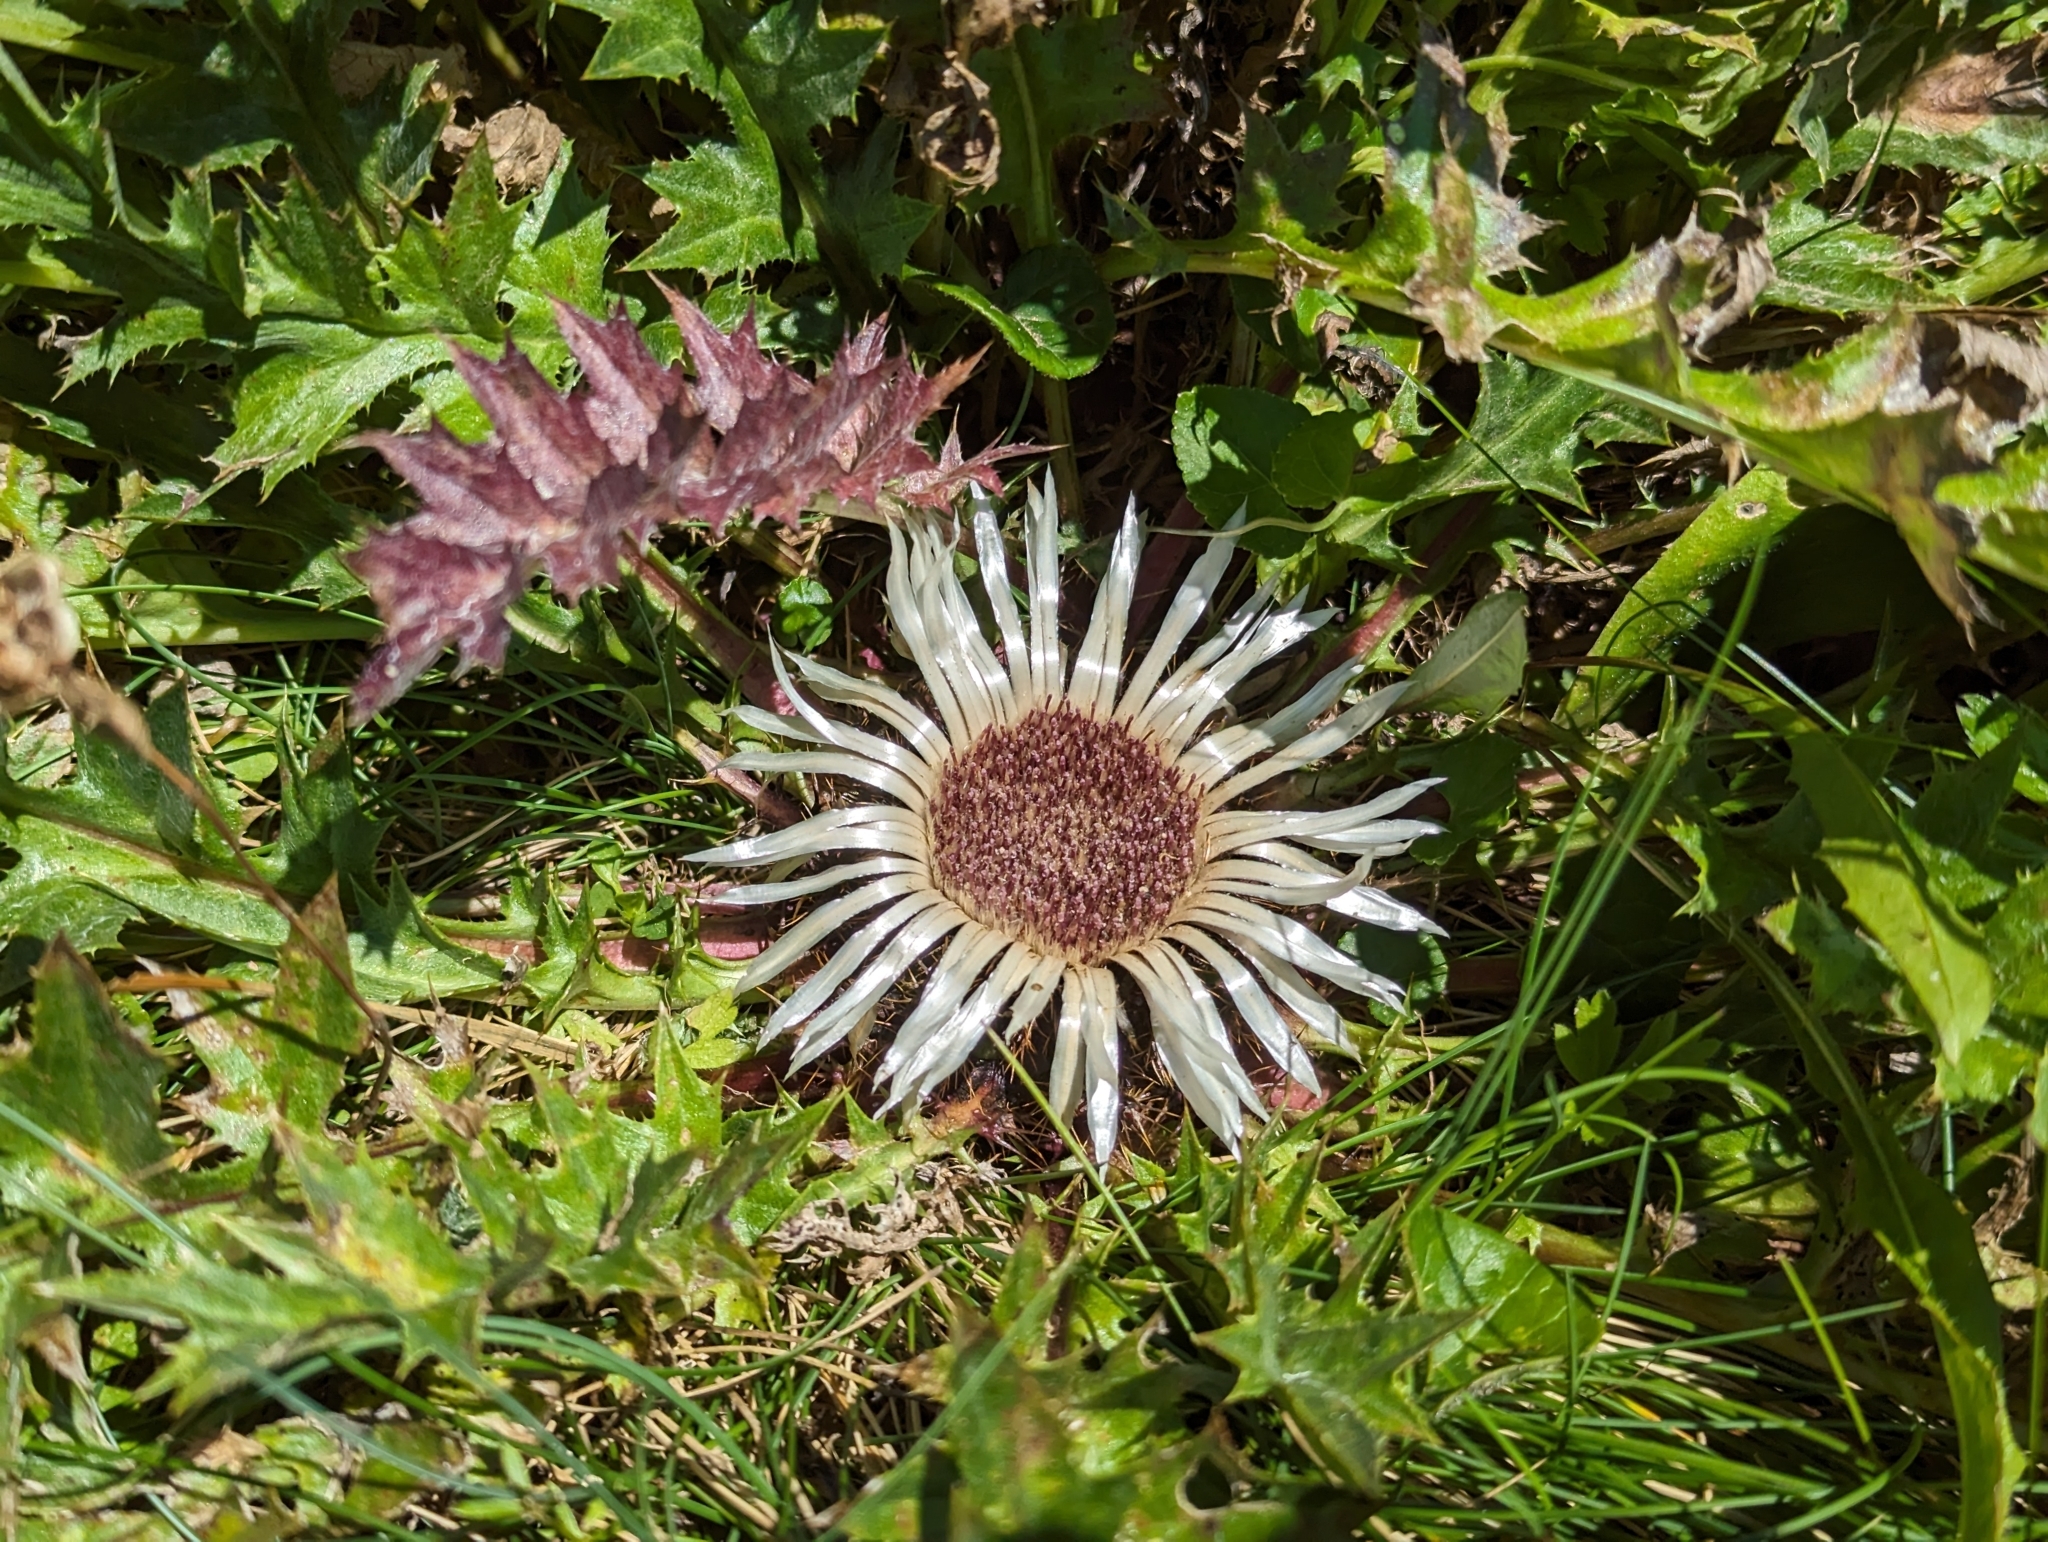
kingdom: Plantae
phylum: Tracheophyta
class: Magnoliopsida
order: Asterales
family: Asteraceae
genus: Carlina
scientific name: Carlina acaulis
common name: Stemless carline thistle
